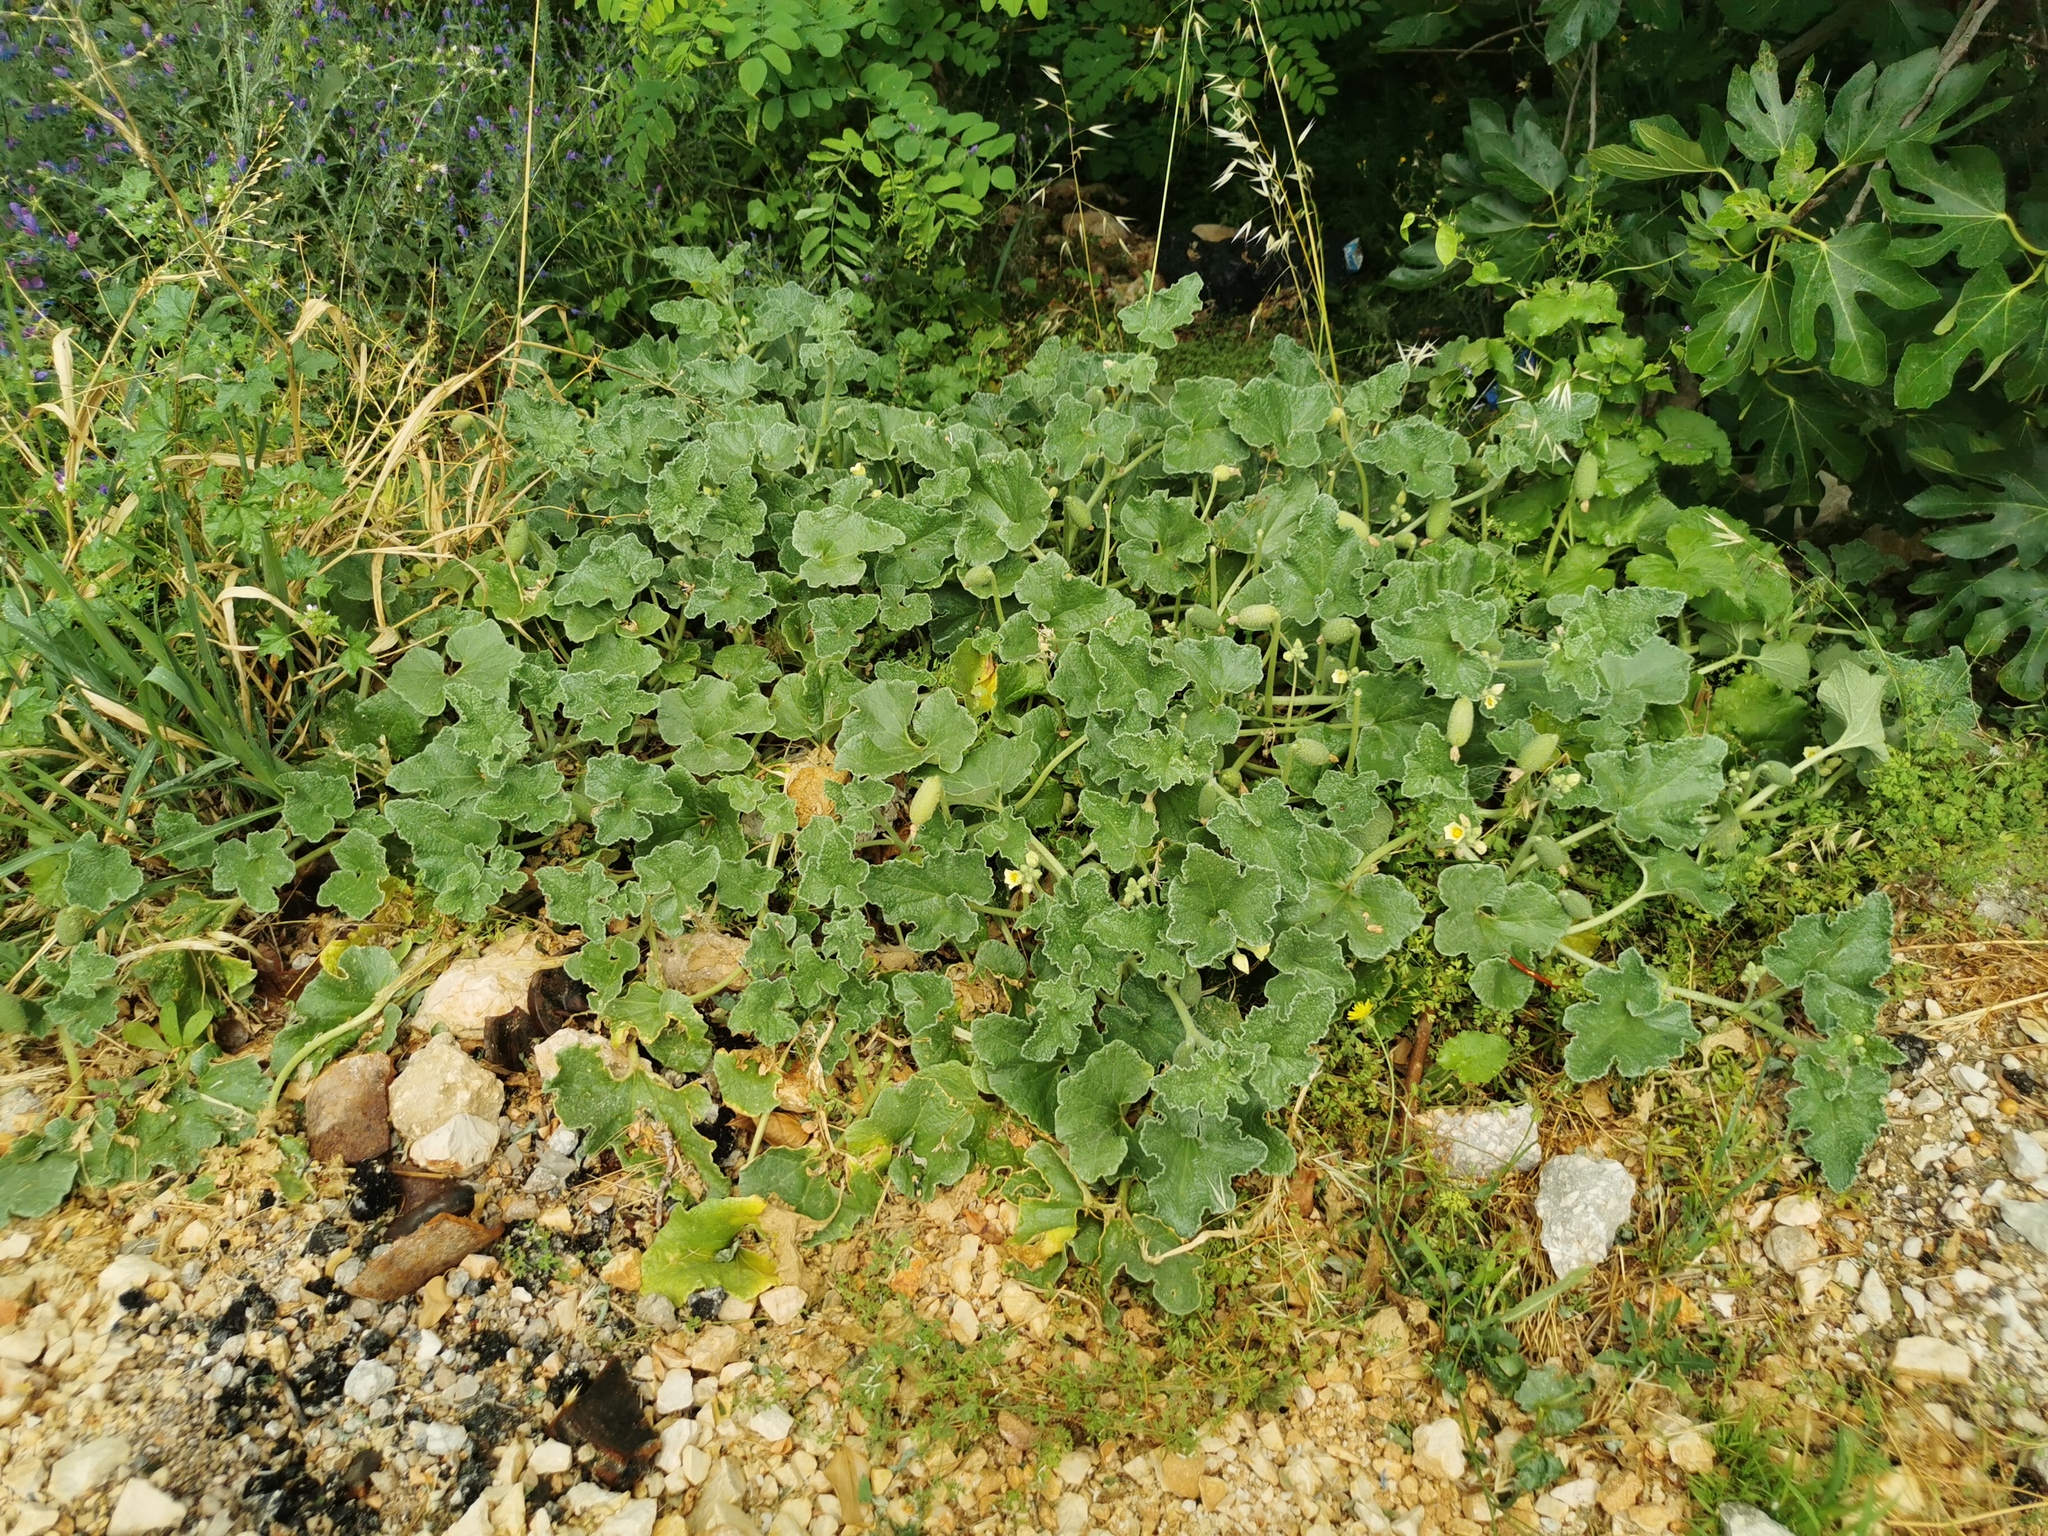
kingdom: Plantae
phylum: Tracheophyta
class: Magnoliopsida
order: Cucurbitales
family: Cucurbitaceae
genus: Ecballium
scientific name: Ecballium elaterium
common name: Squirting cucumber
